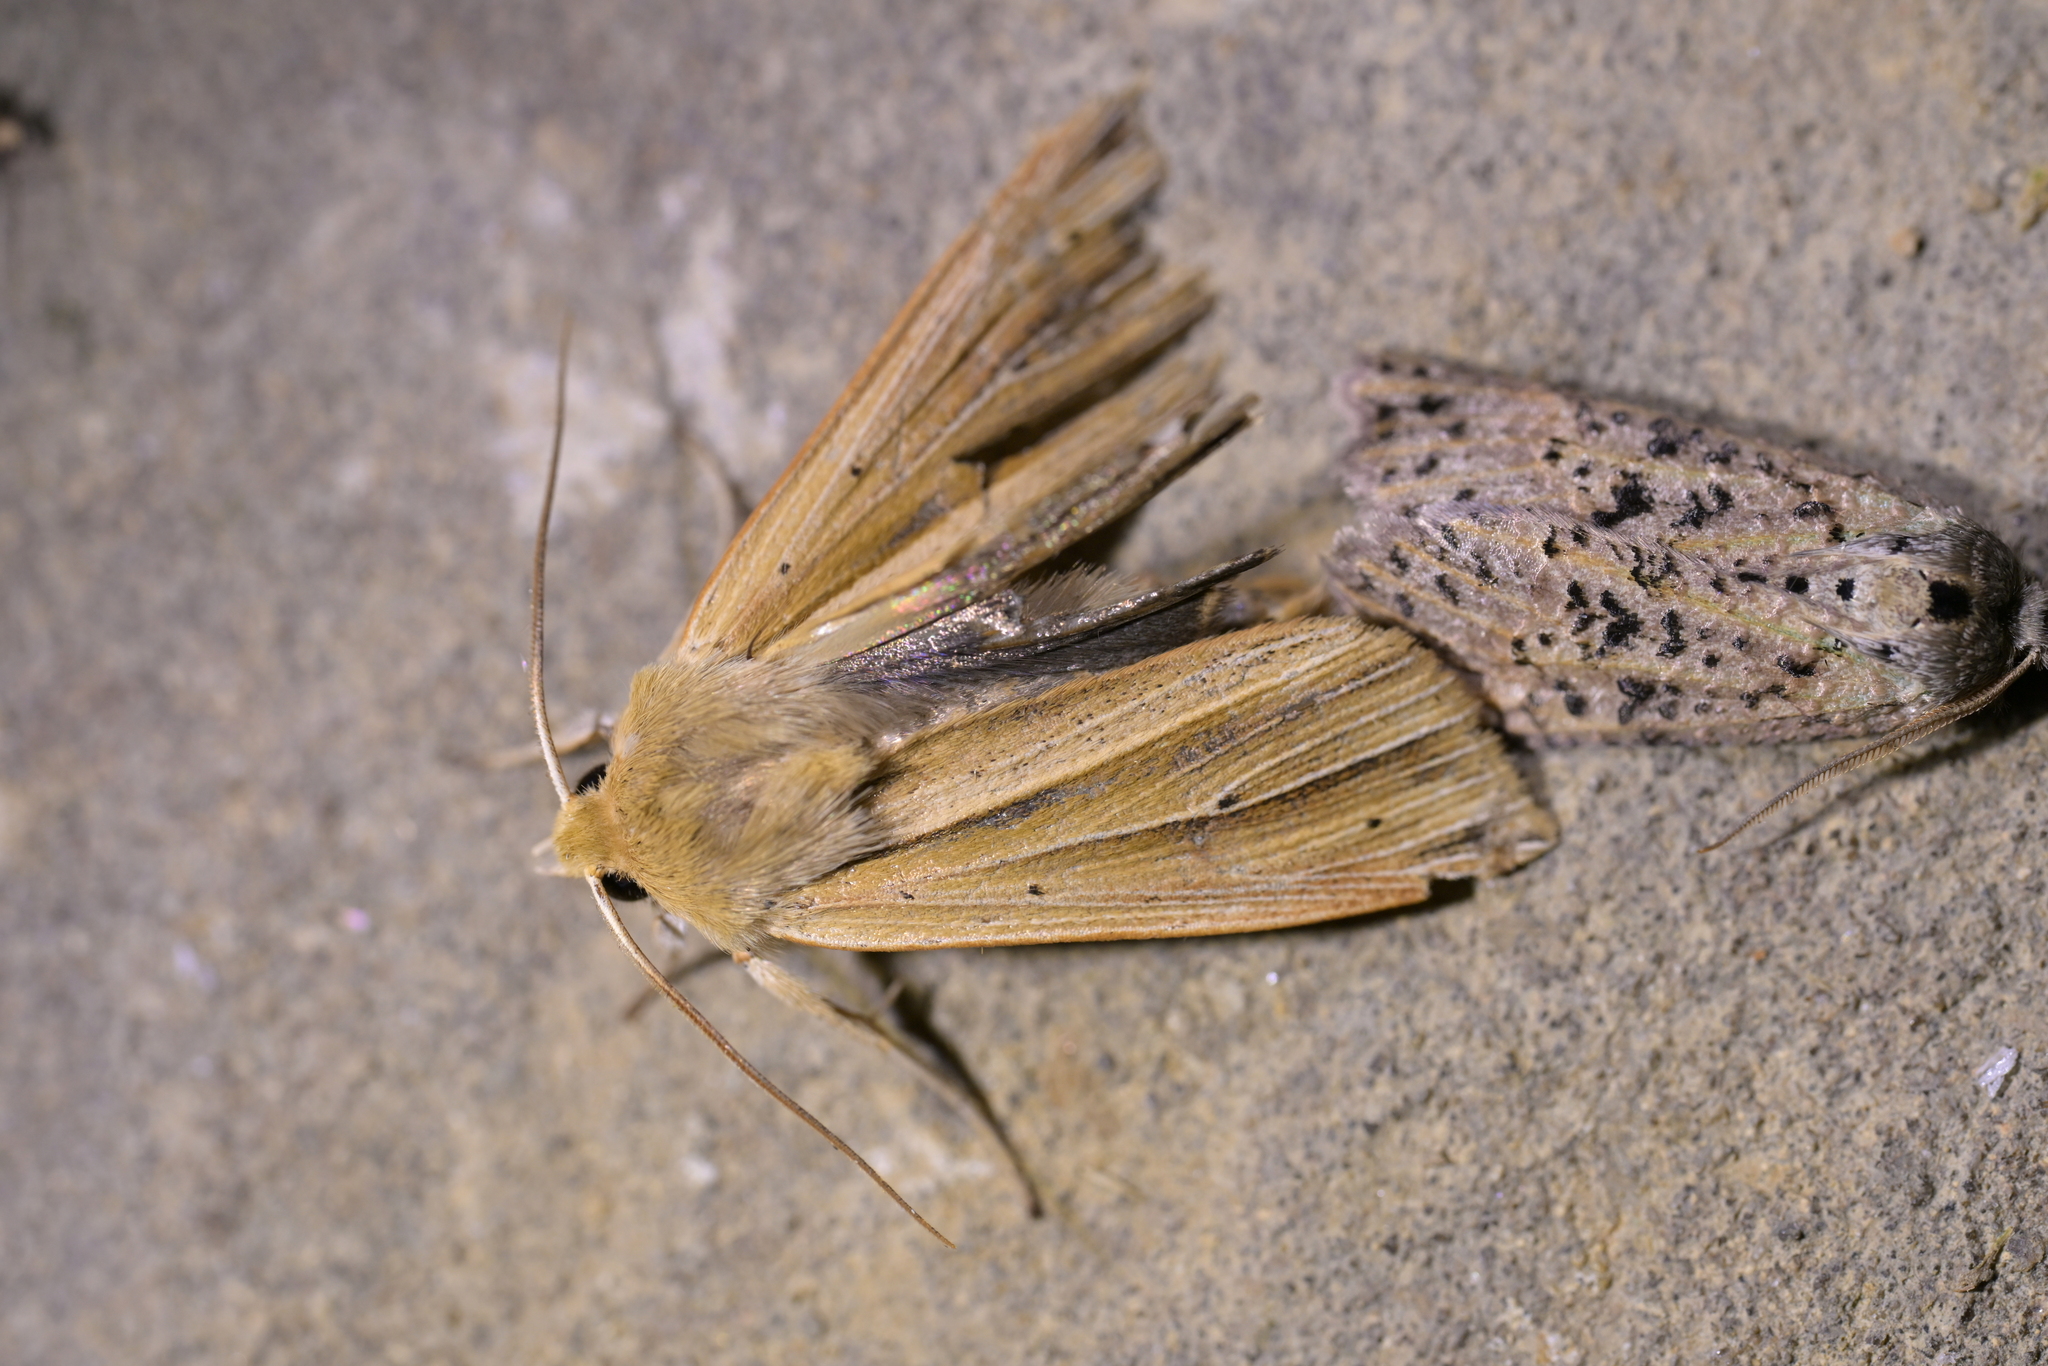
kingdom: Animalia
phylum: Arthropoda
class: Insecta
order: Lepidoptera
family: Noctuidae
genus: Ichneutica
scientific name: Ichneutica sulcana
